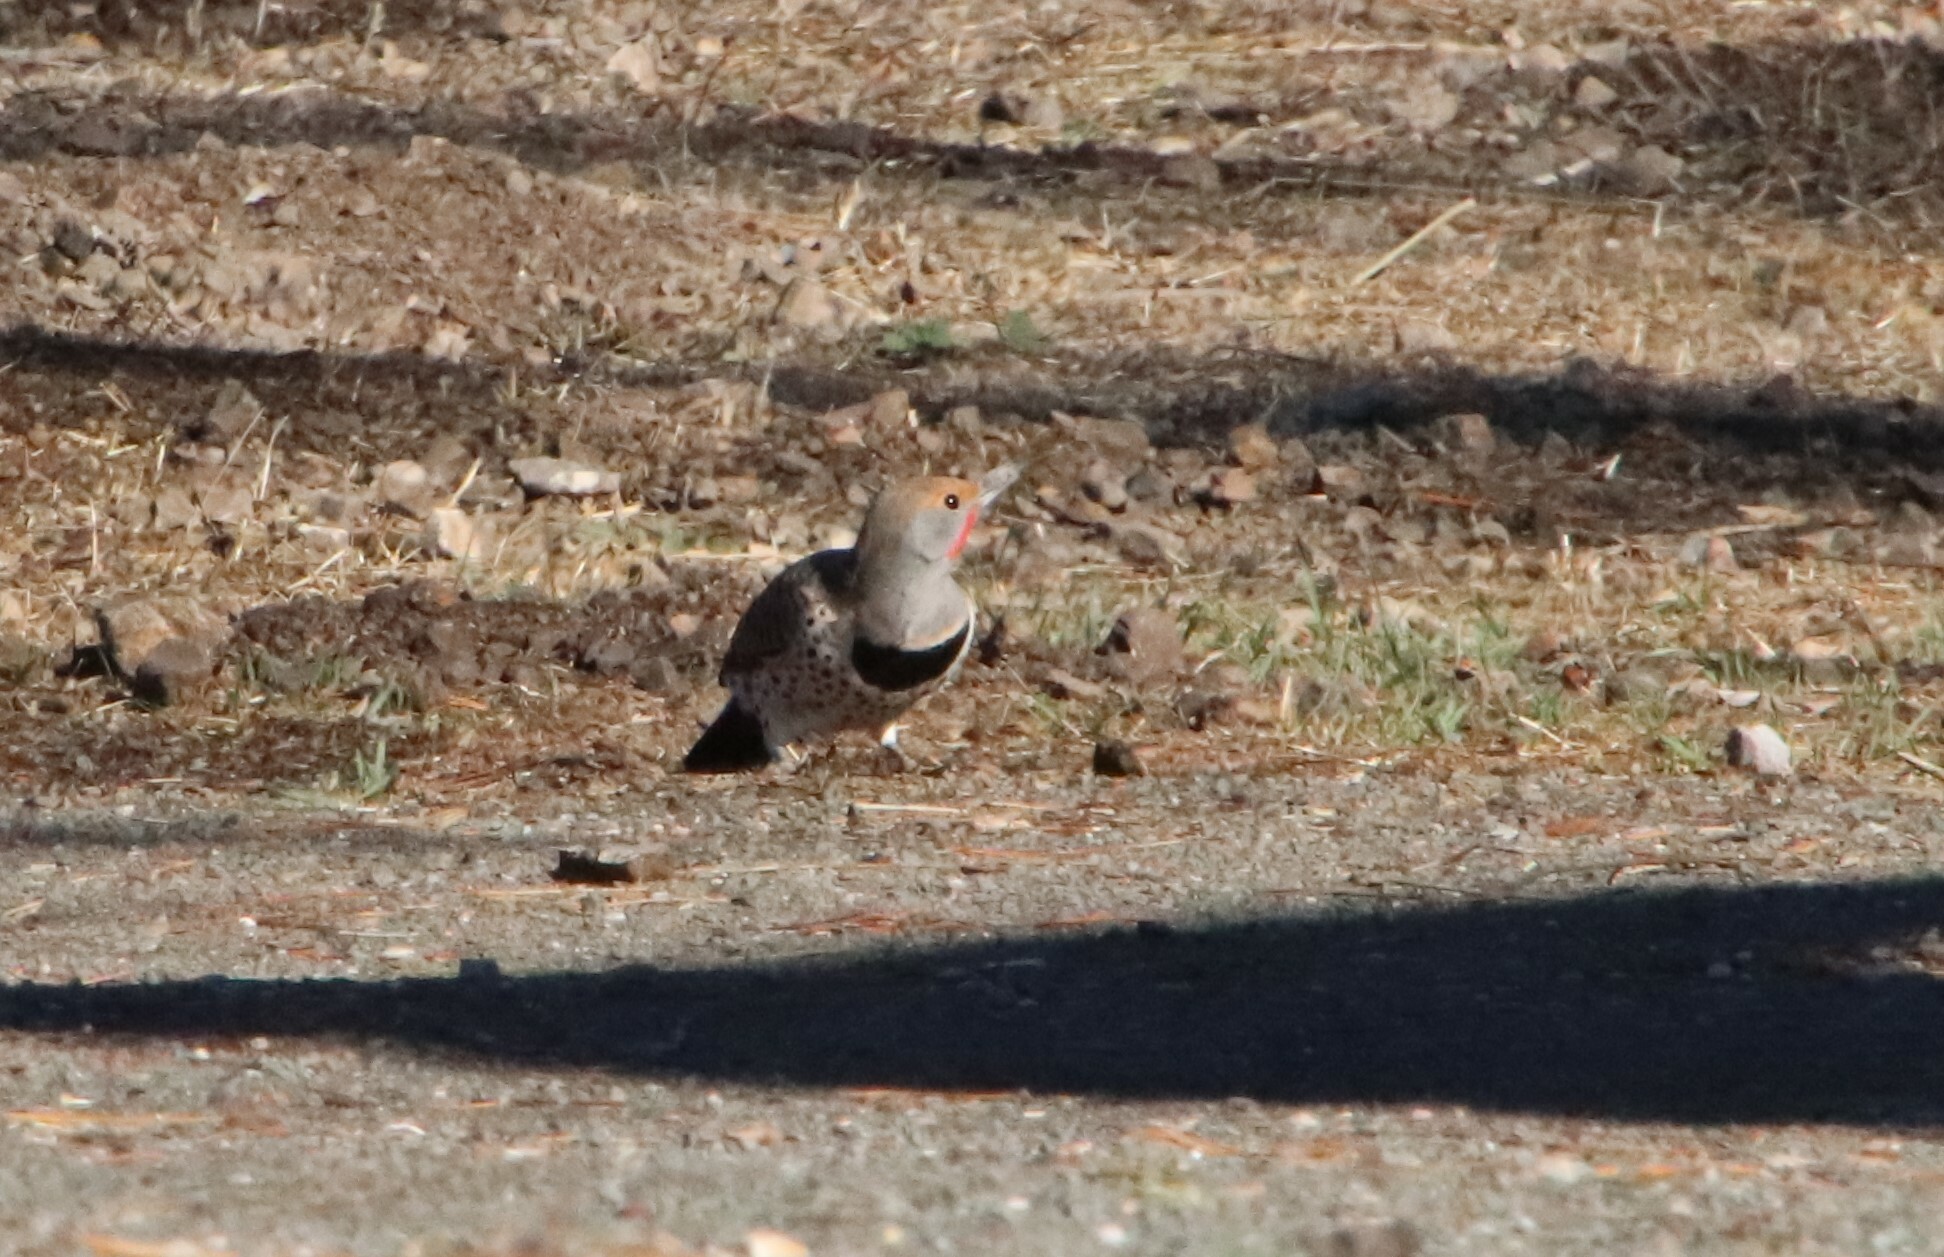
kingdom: Animalia
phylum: Chordata
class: Aves
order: Piciformes
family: Picidae
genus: Colaptes
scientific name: Colaptes auratus
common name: Northern flicker
